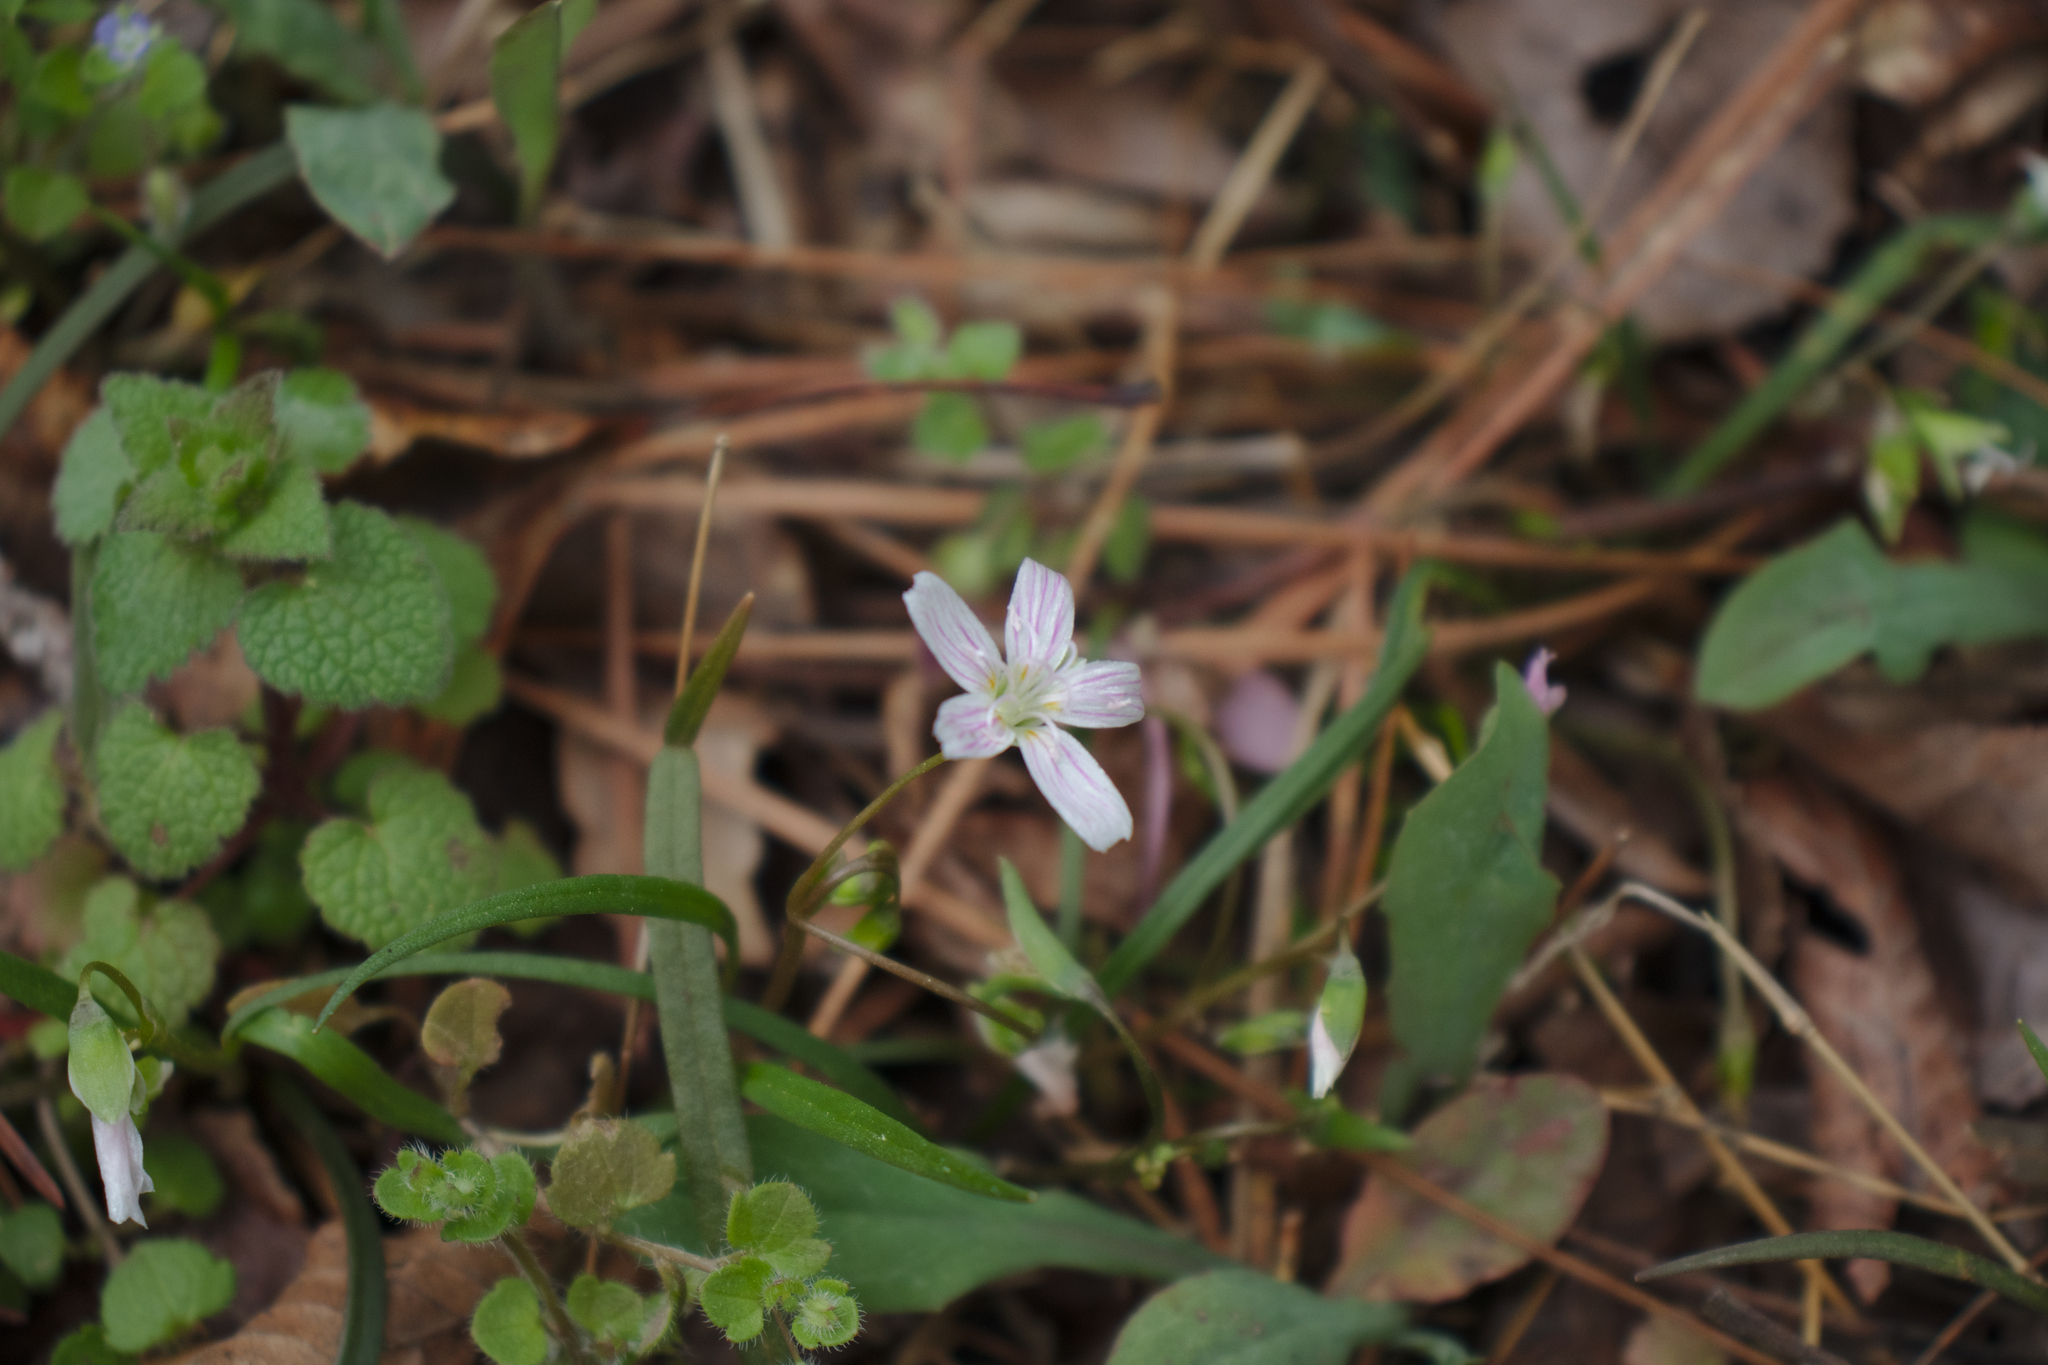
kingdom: Plantae
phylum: Tracheophyta
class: Magnoliopsida
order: Caryophyllales
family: Montiaceae
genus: Claytonia
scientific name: Claytonia virginica
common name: Virginia springbeauty
